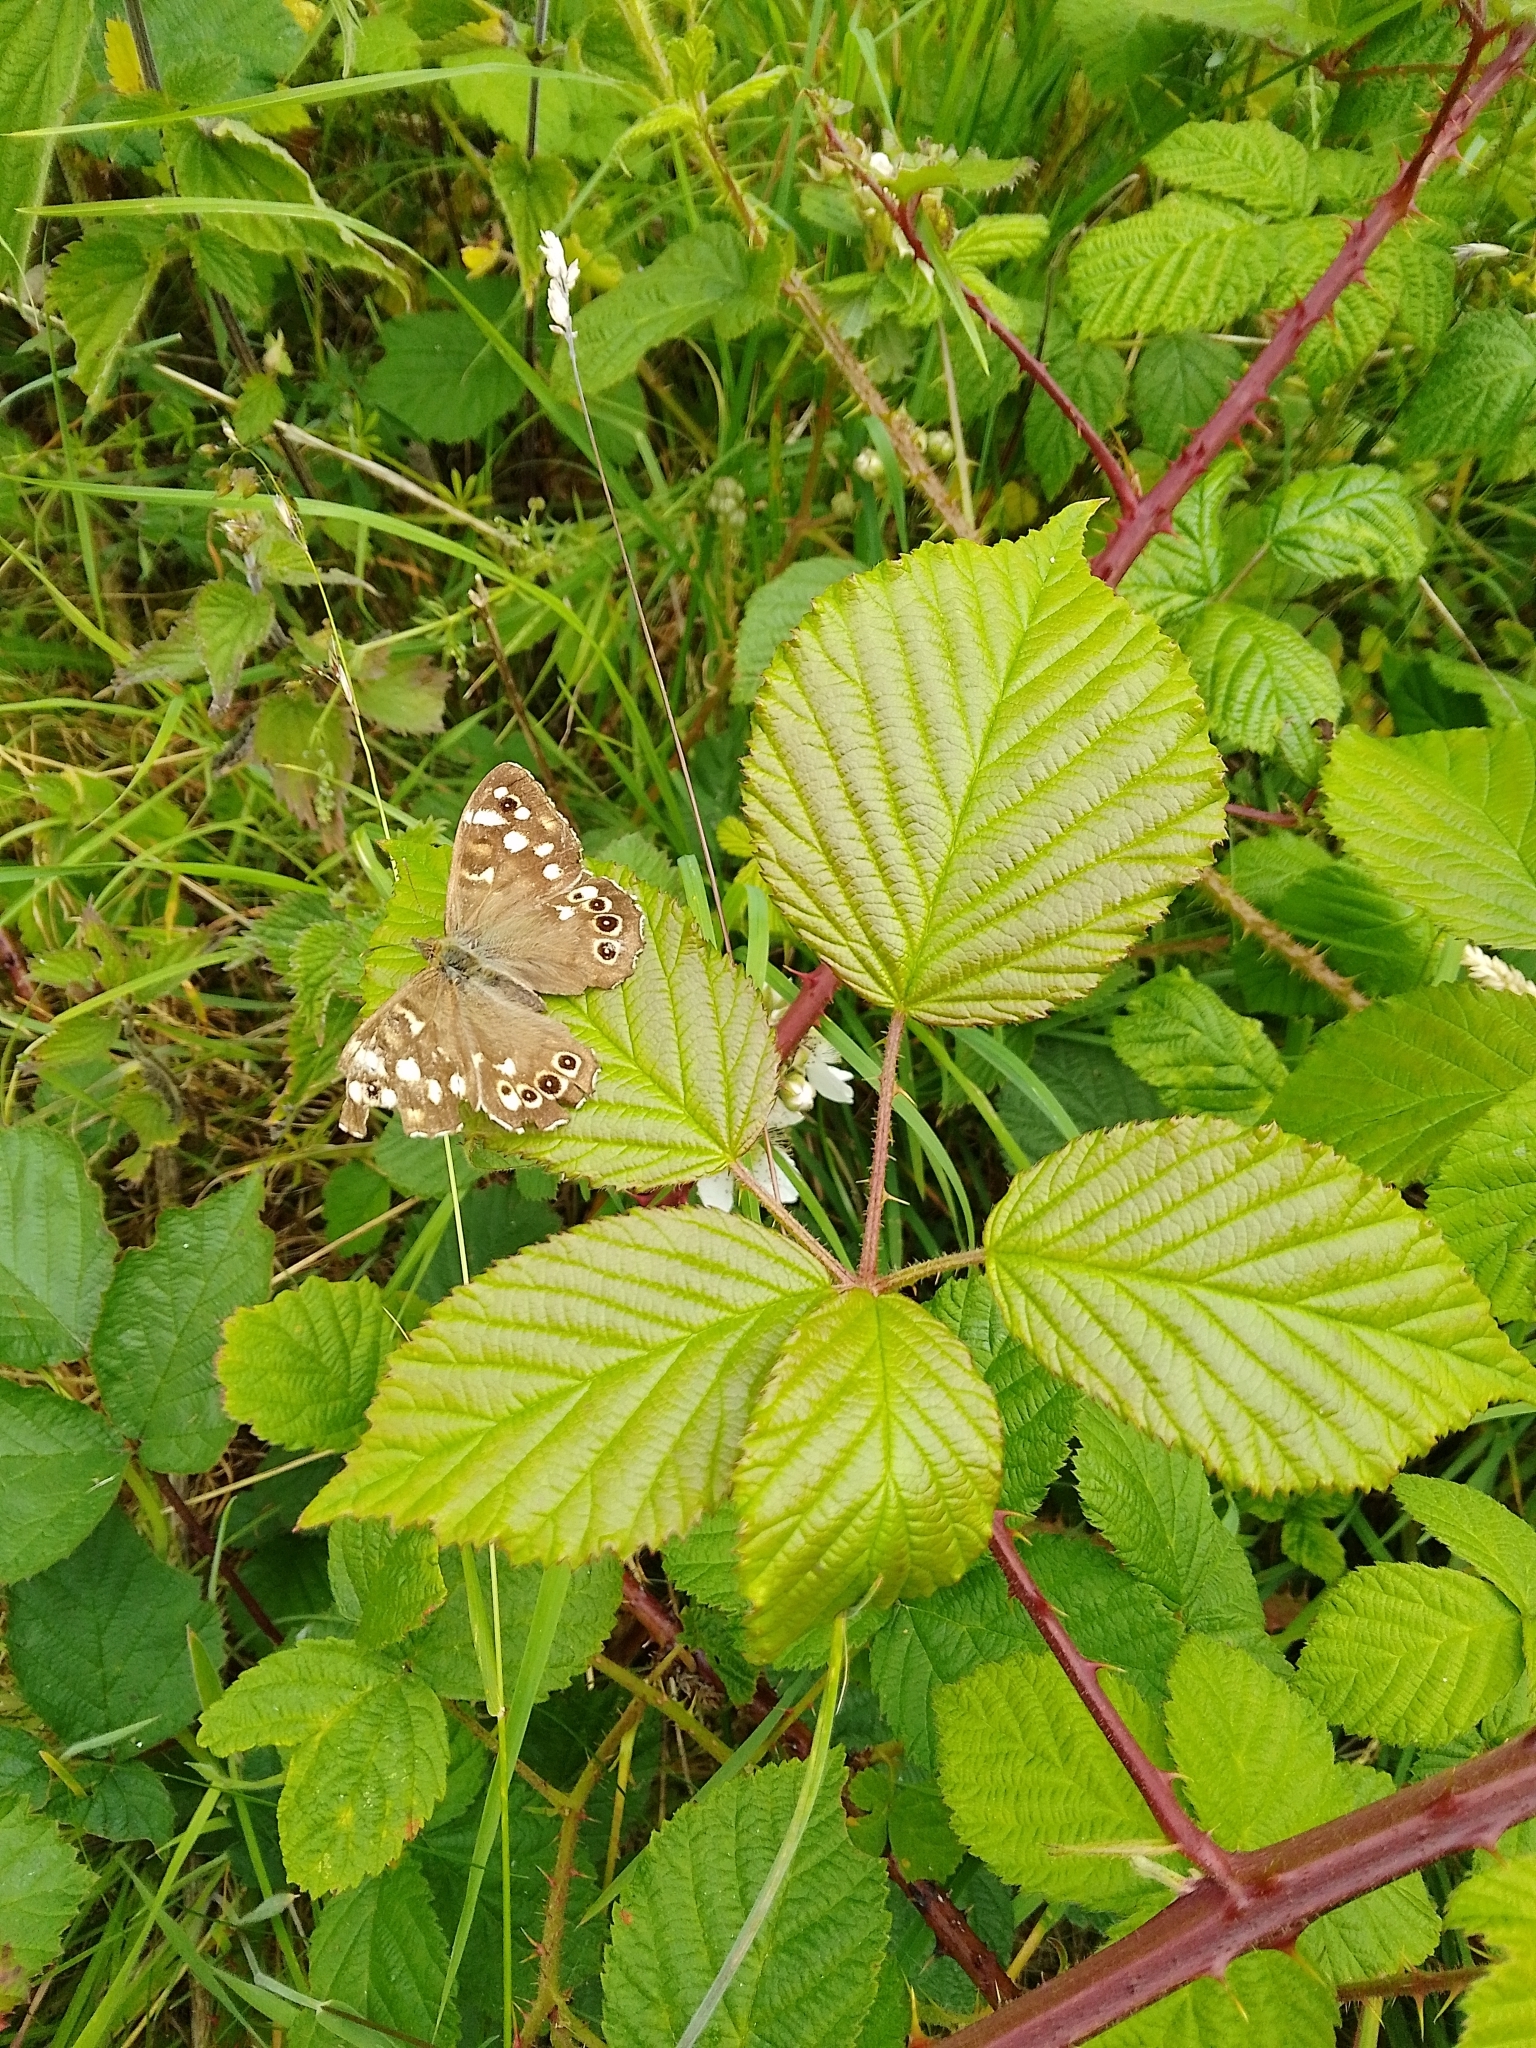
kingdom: Animalia
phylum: Arthropoda
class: Insecta
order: Lepidoptera
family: Nymphalidae
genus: Pararge
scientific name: Pararge aegeria
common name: Speckled wood
